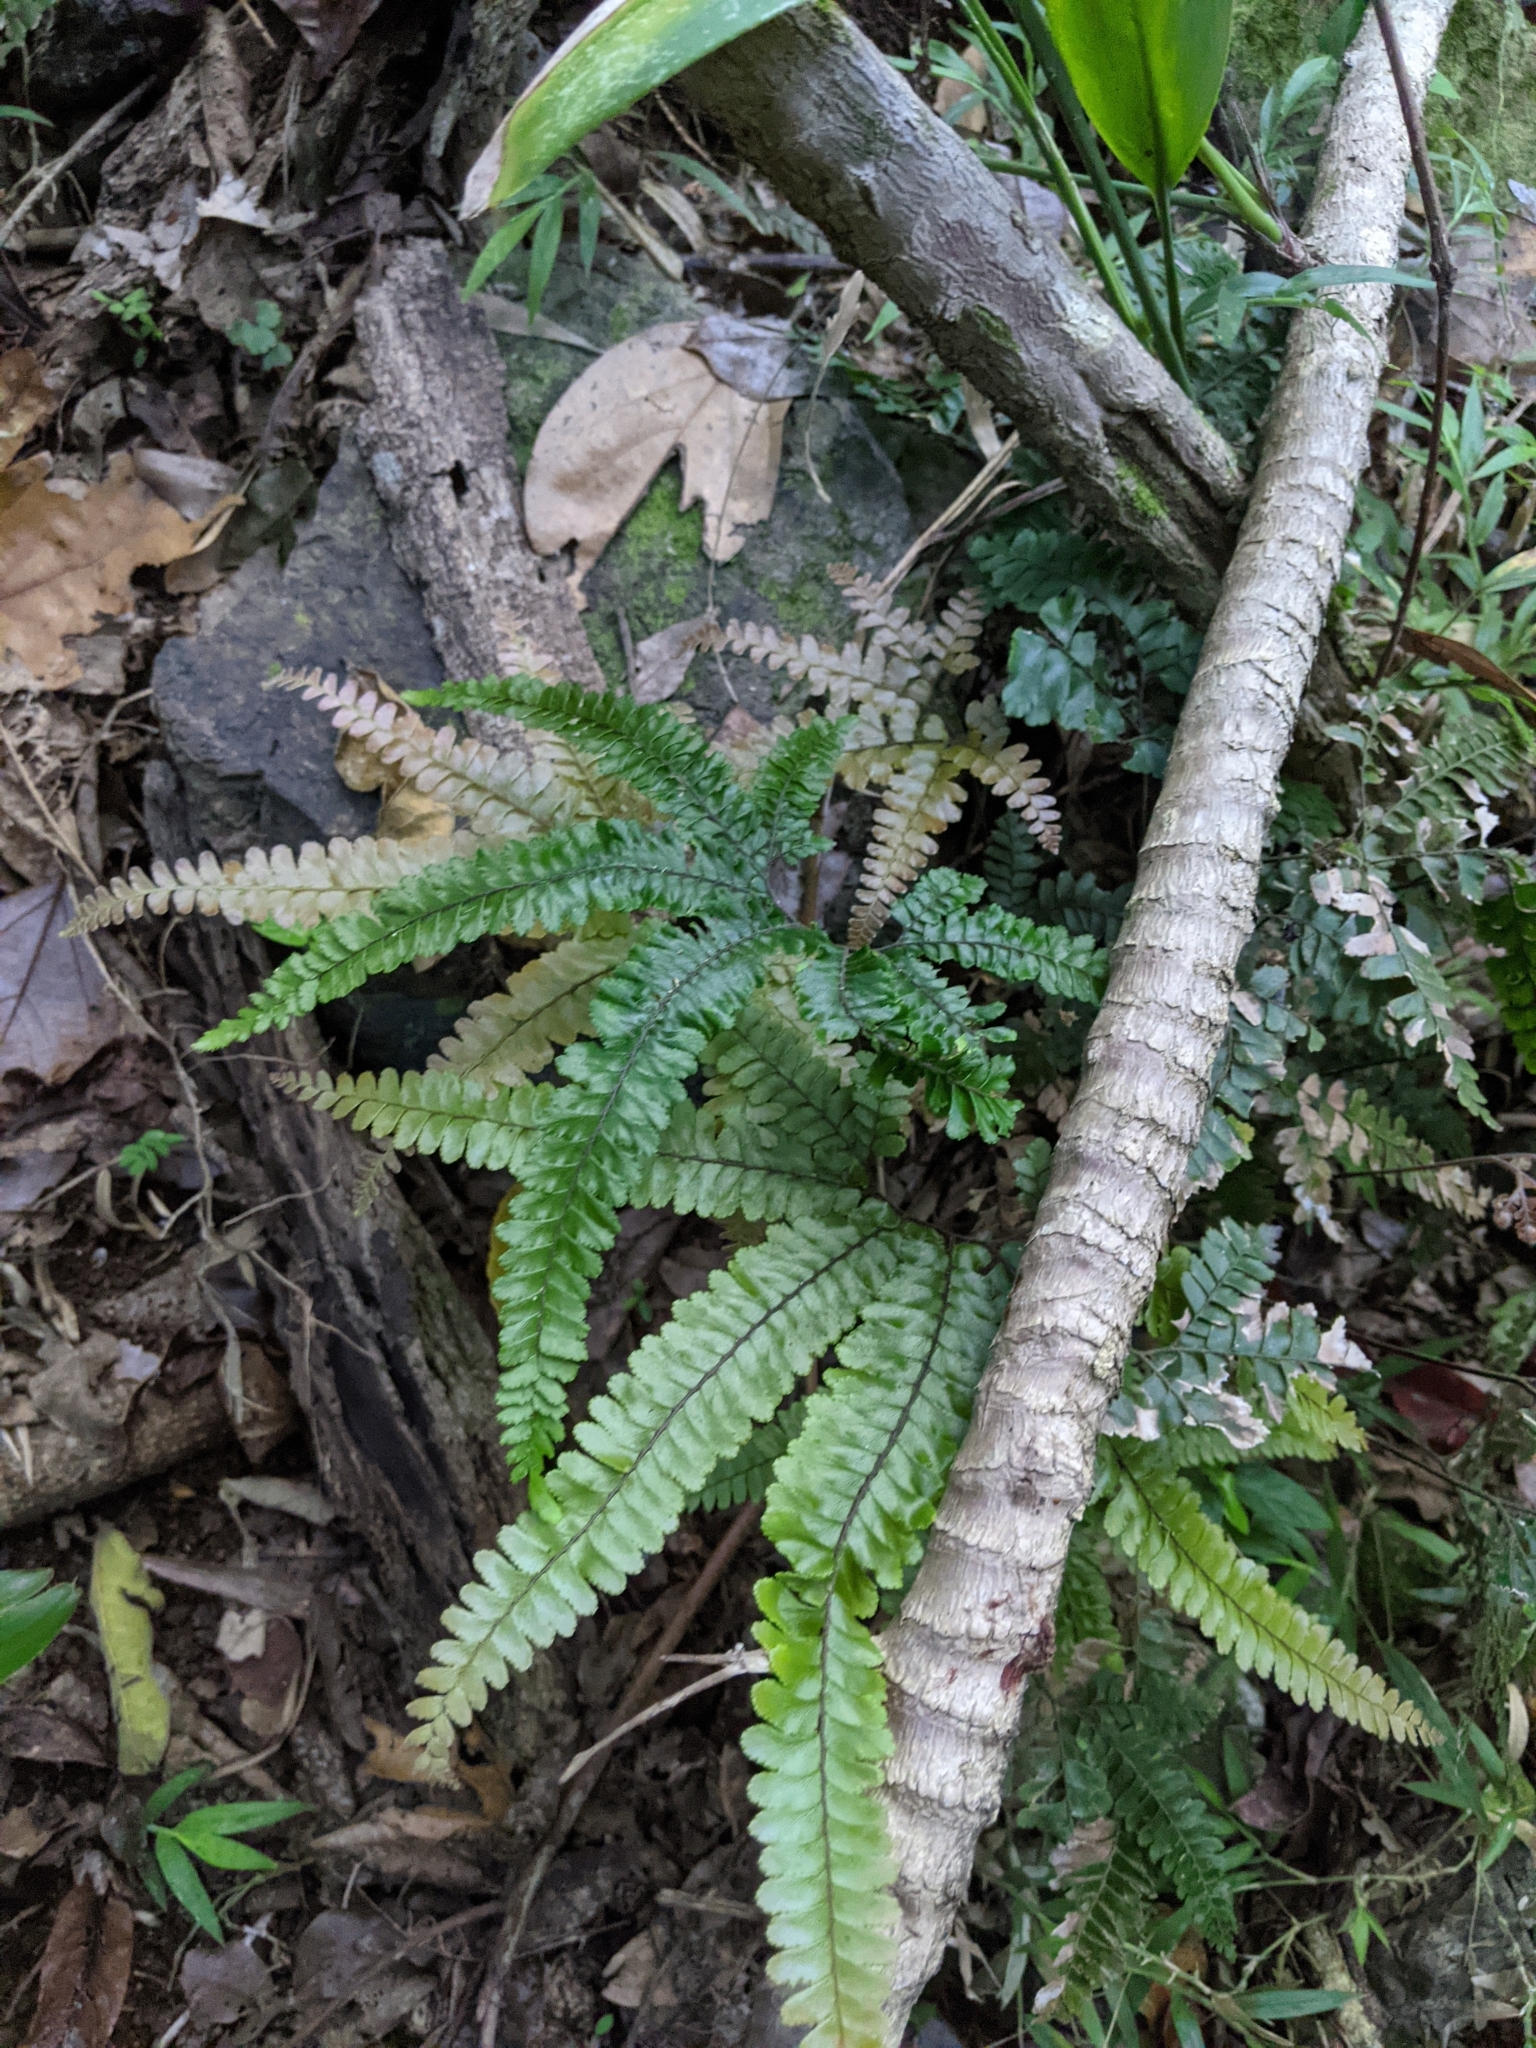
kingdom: Plantae
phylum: Tracheophyta
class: Polypodiopsida
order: Polypodiales
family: Pteridaceae
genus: Adiantum
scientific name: Adiantum hispidulum
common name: Rough maidenhair
